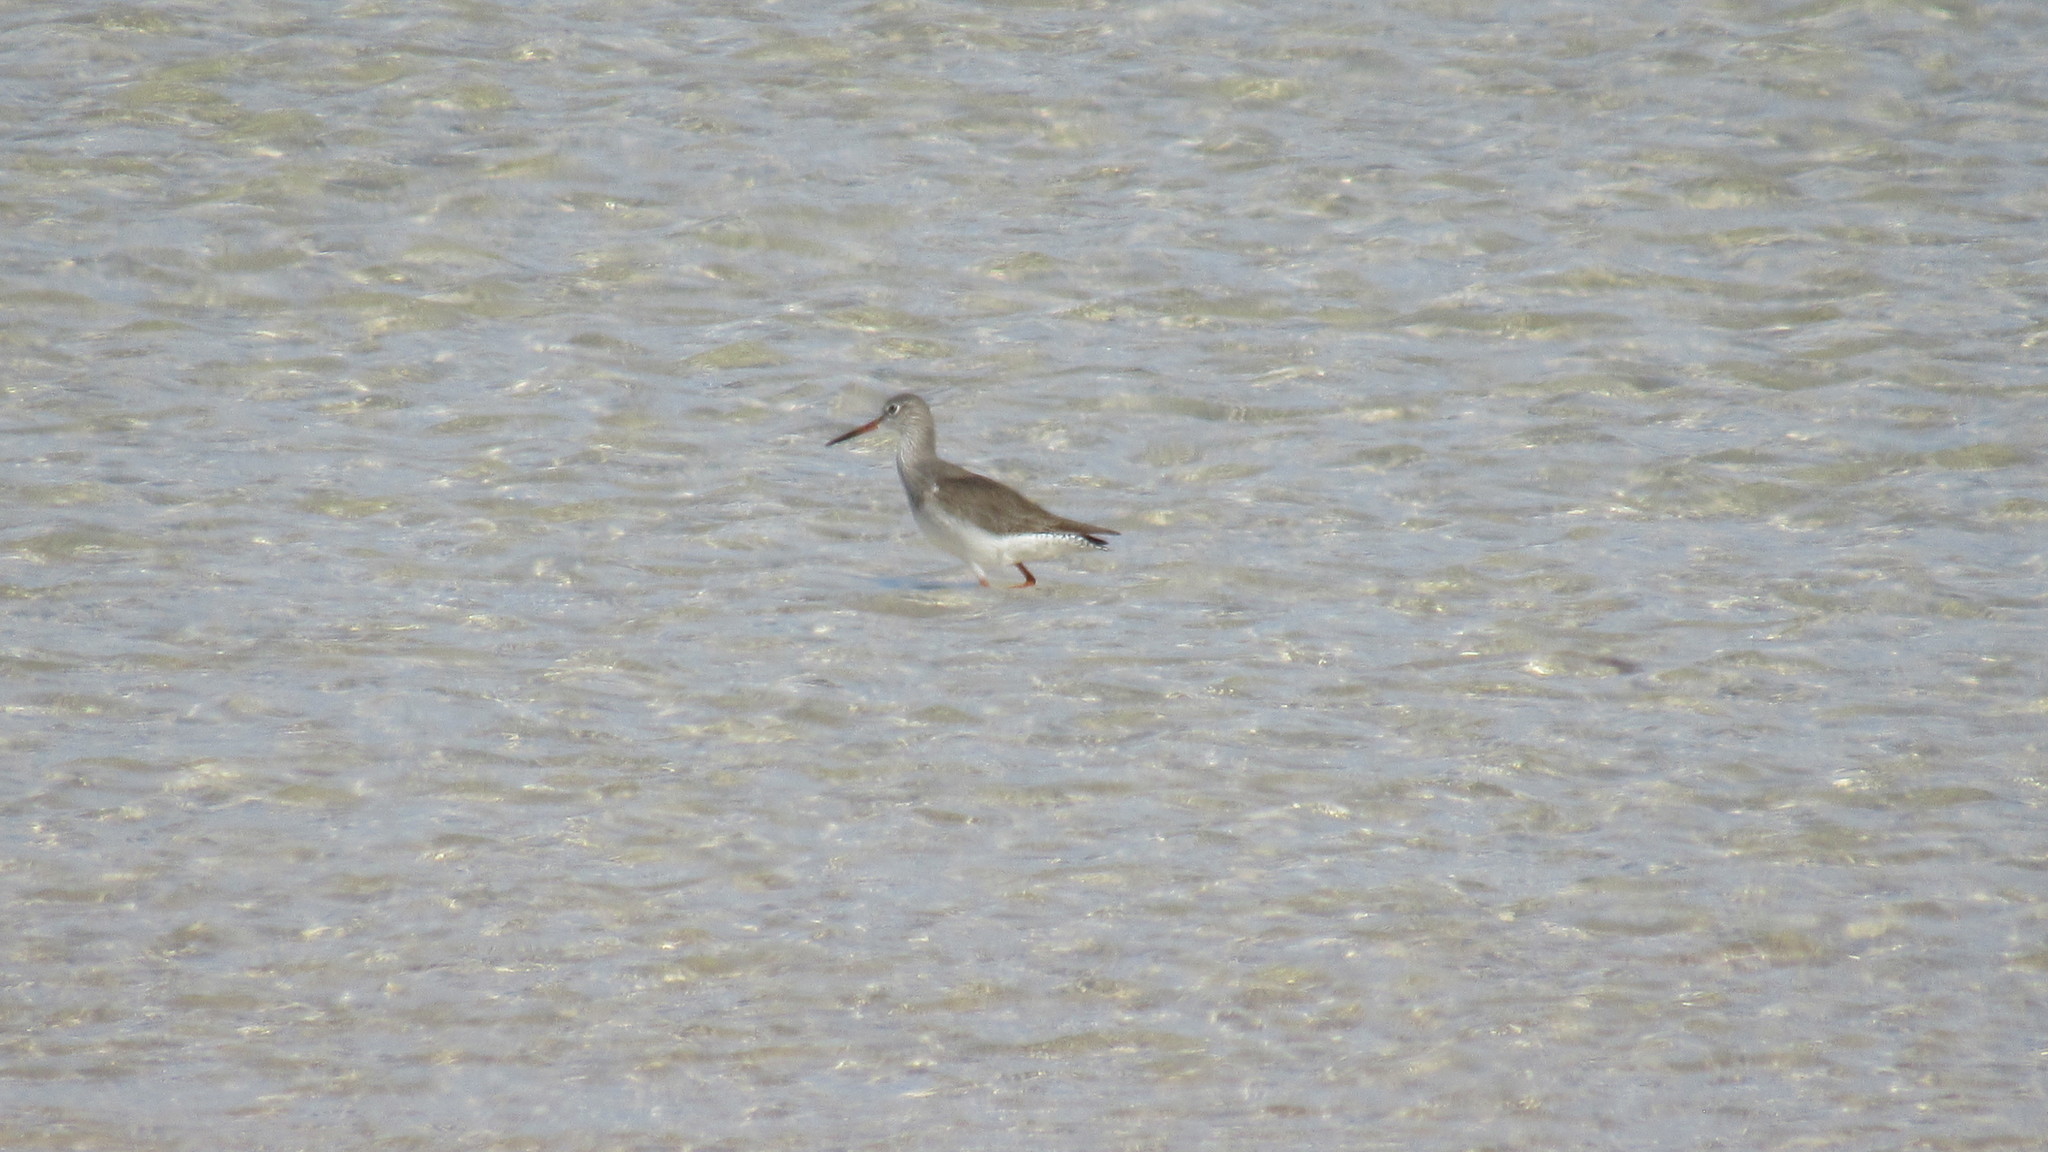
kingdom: Animalia
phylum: Chordata
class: Aves
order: Charadriiformes
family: Scolopacidae
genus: Tringa
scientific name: Tringa erythropus
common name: Spotted redshank
